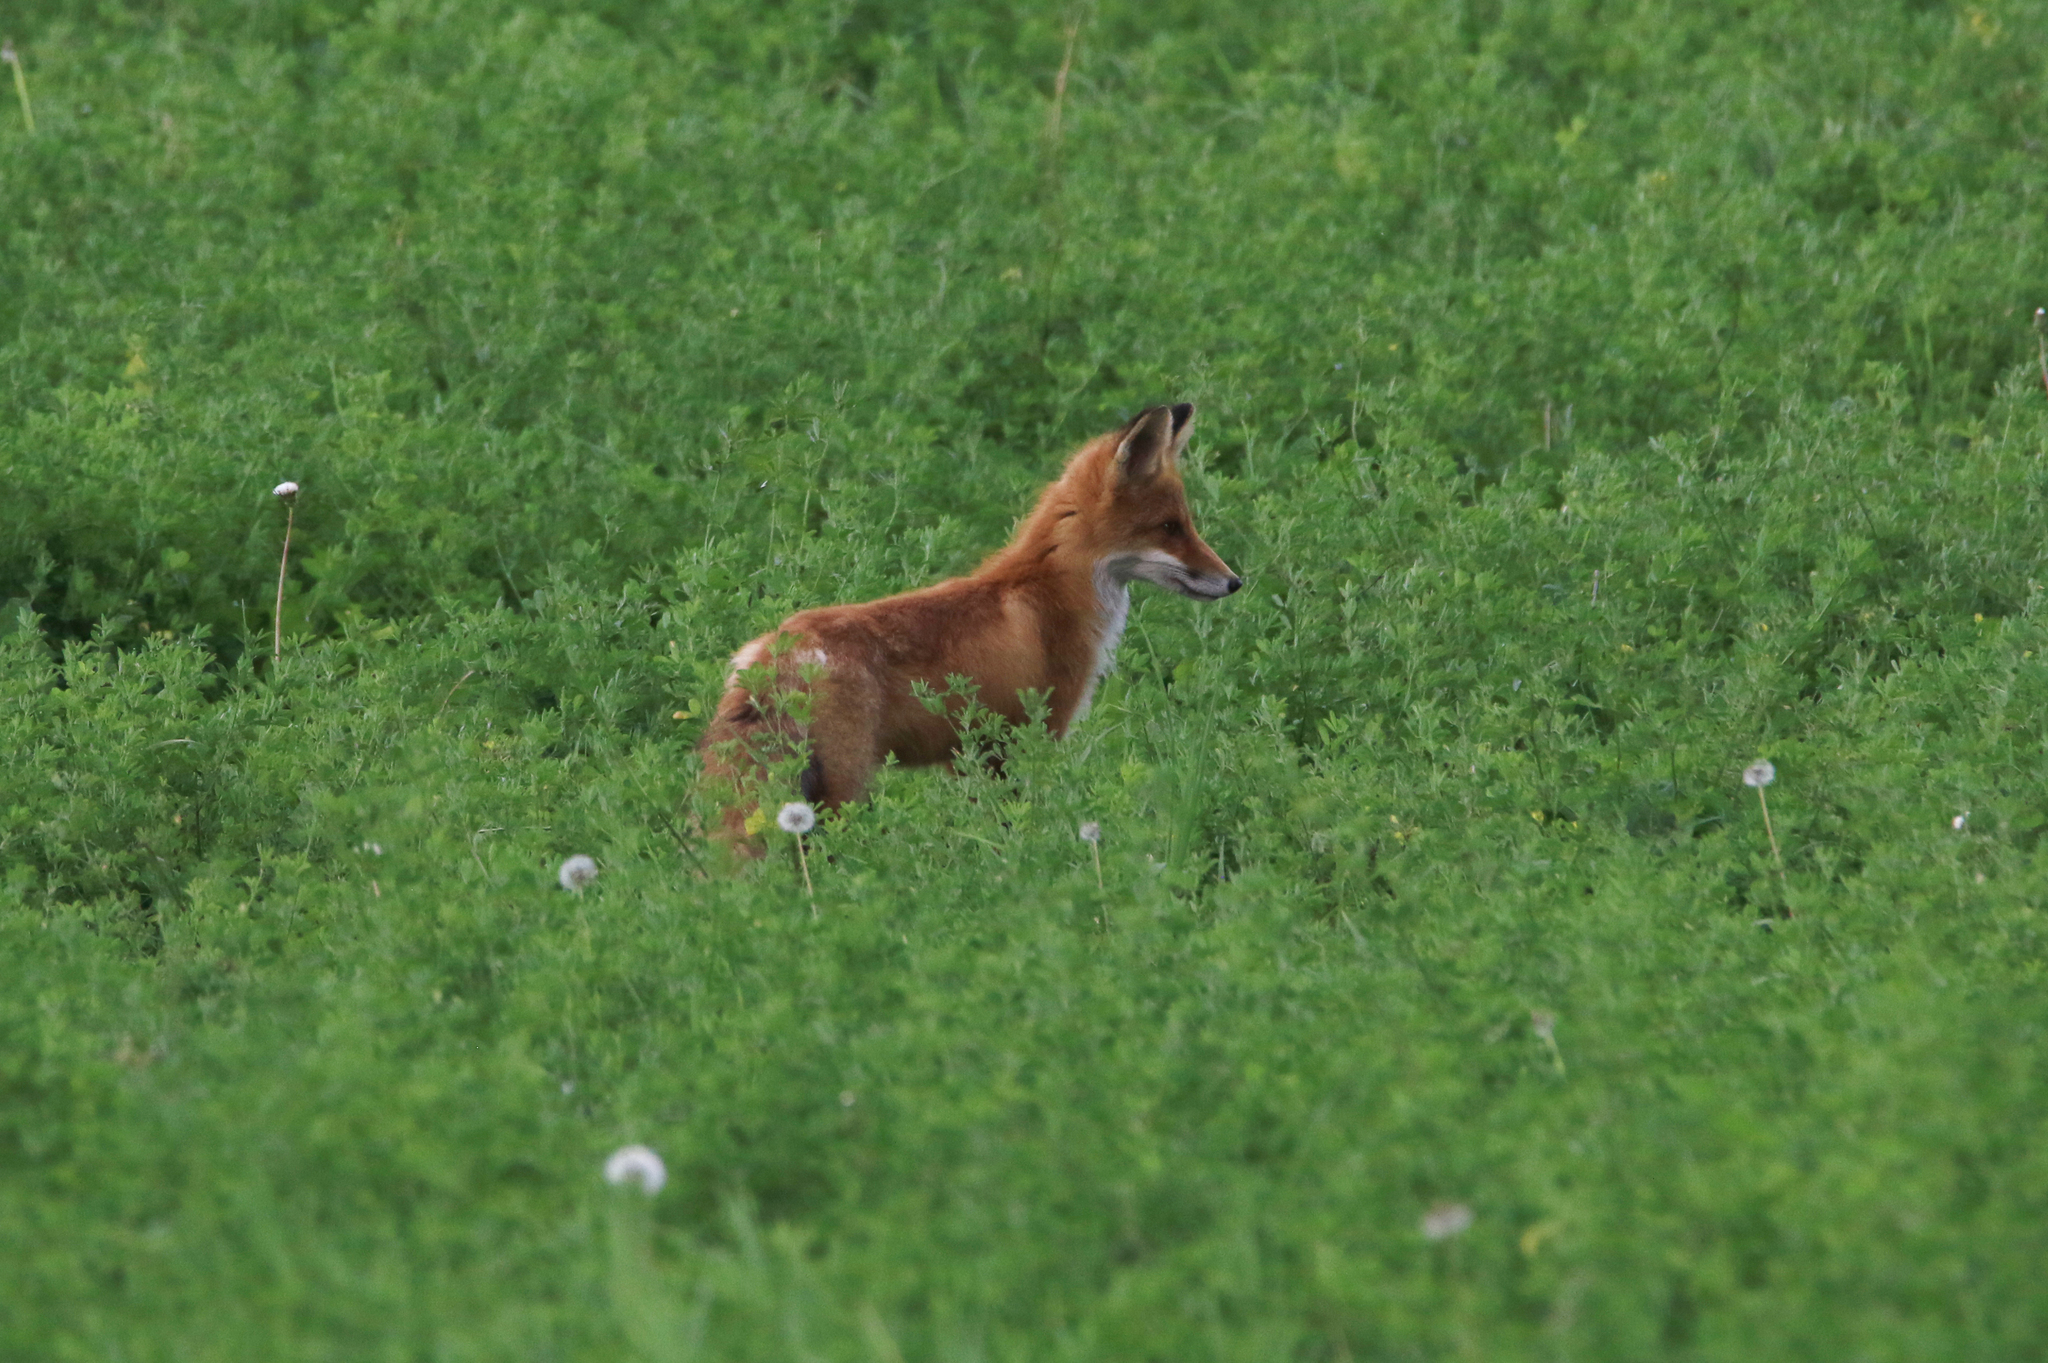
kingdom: Animalia
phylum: Chordata
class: Mammalia
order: Carnivora
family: Canidae
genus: Vulpes
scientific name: Vulpes vulpes
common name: Red fox
